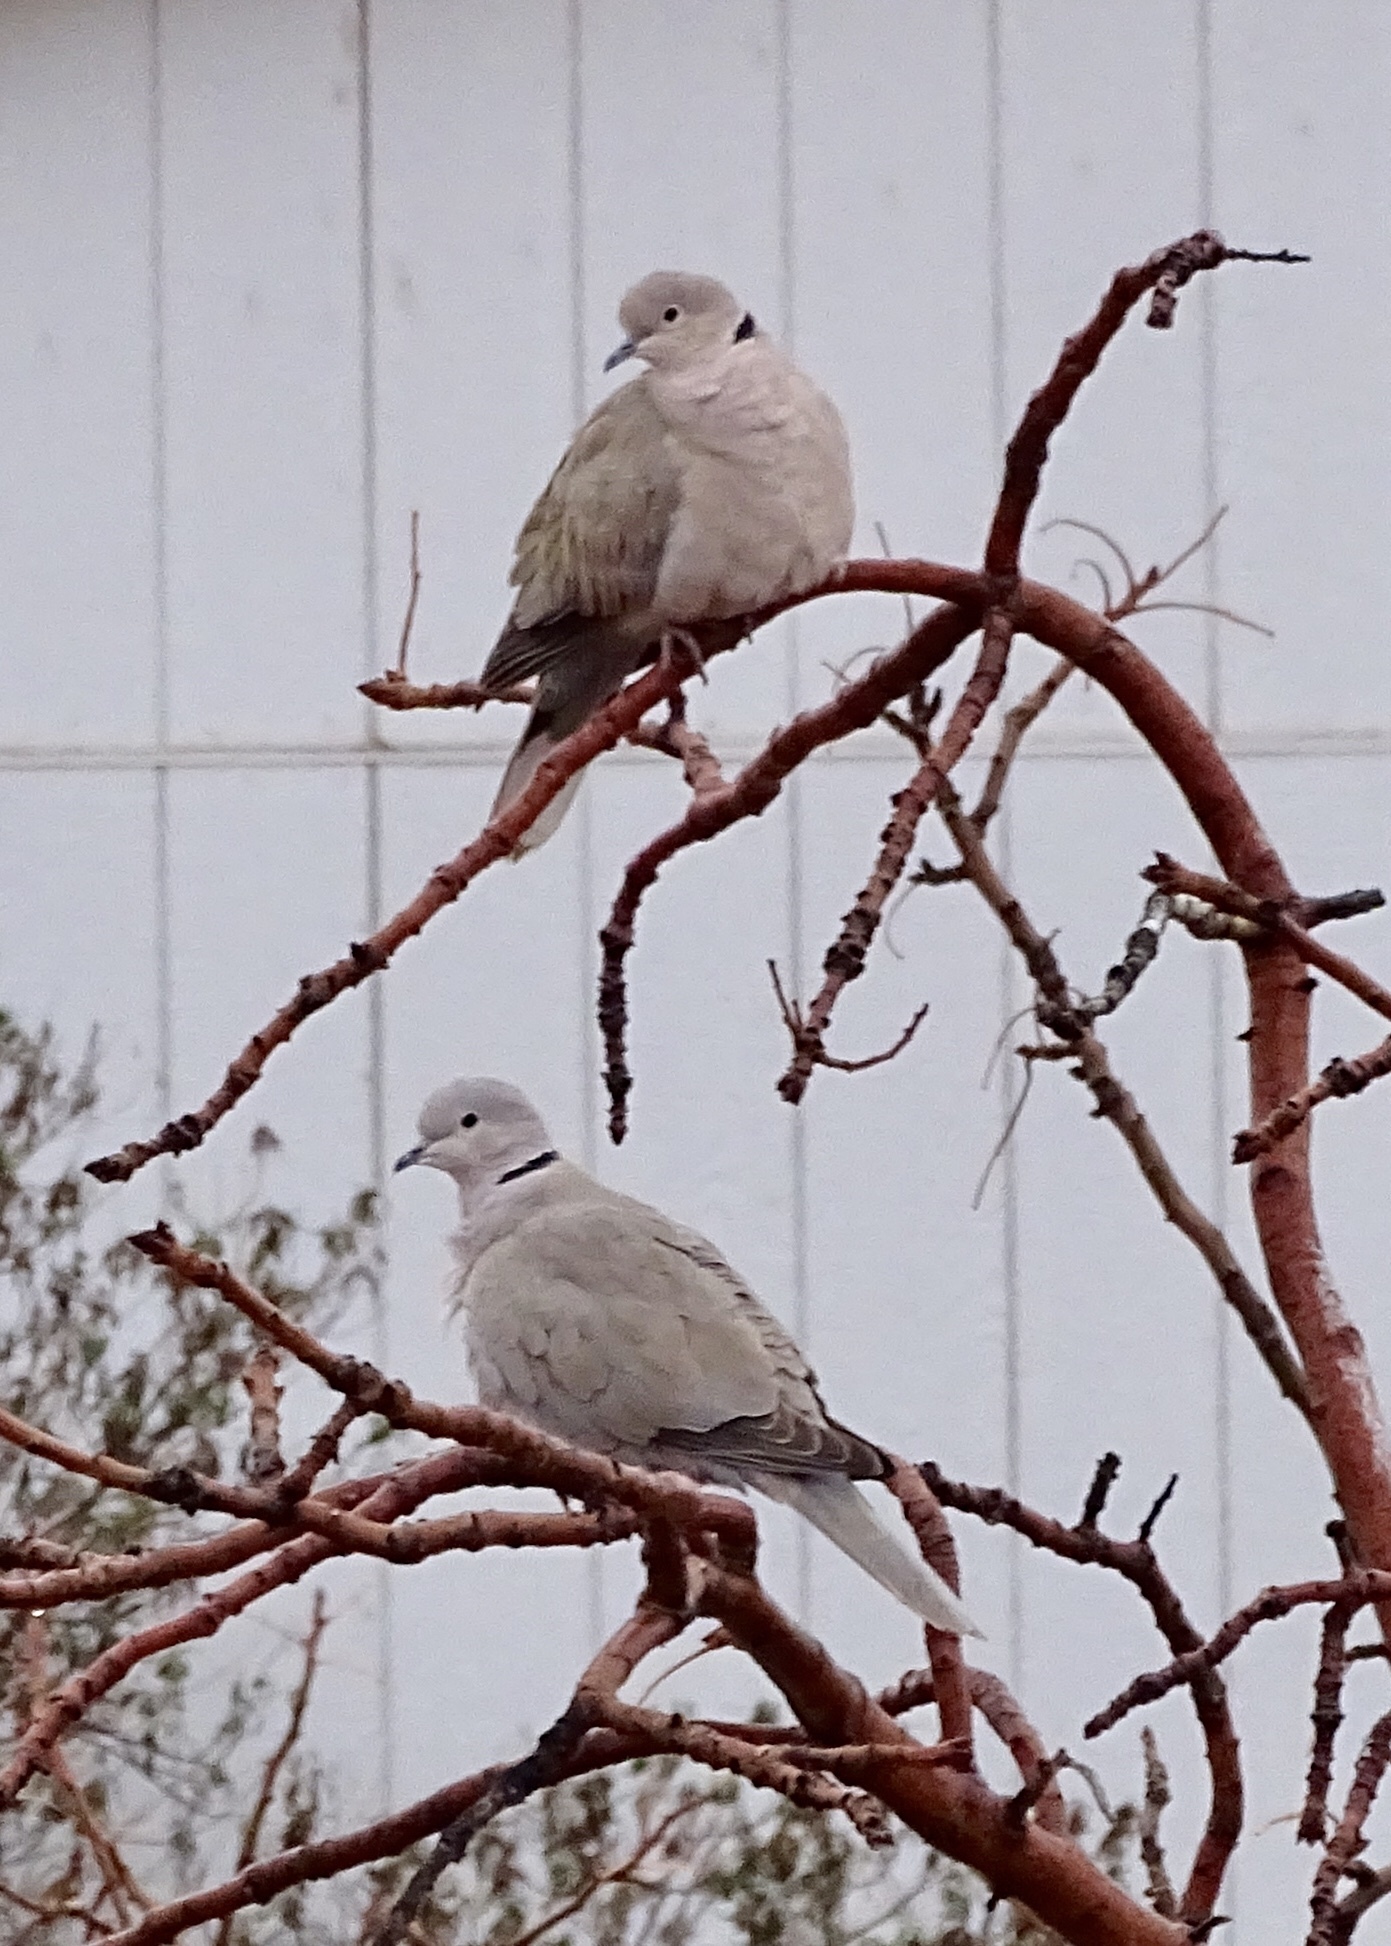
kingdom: Animalia
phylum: Chordata
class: Aves
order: Columbiformes
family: Columbidae
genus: Streptopelia
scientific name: Streptopelia decaocto
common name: Eurasian collared dove
